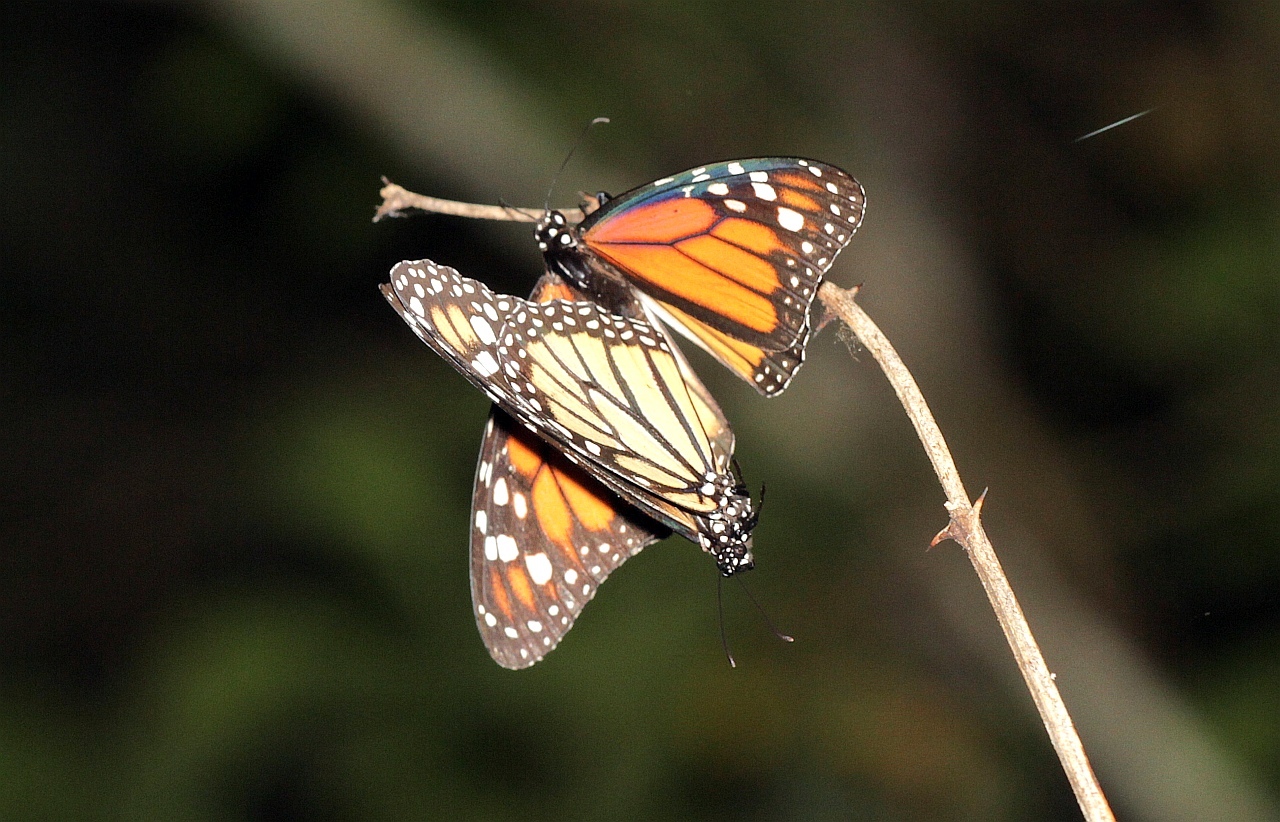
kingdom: Animalia
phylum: Arthropoda
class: Insecta
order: Lepidoptera
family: Nymphalidae
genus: Danaus
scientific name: Danaus plexippus
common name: Monarch
